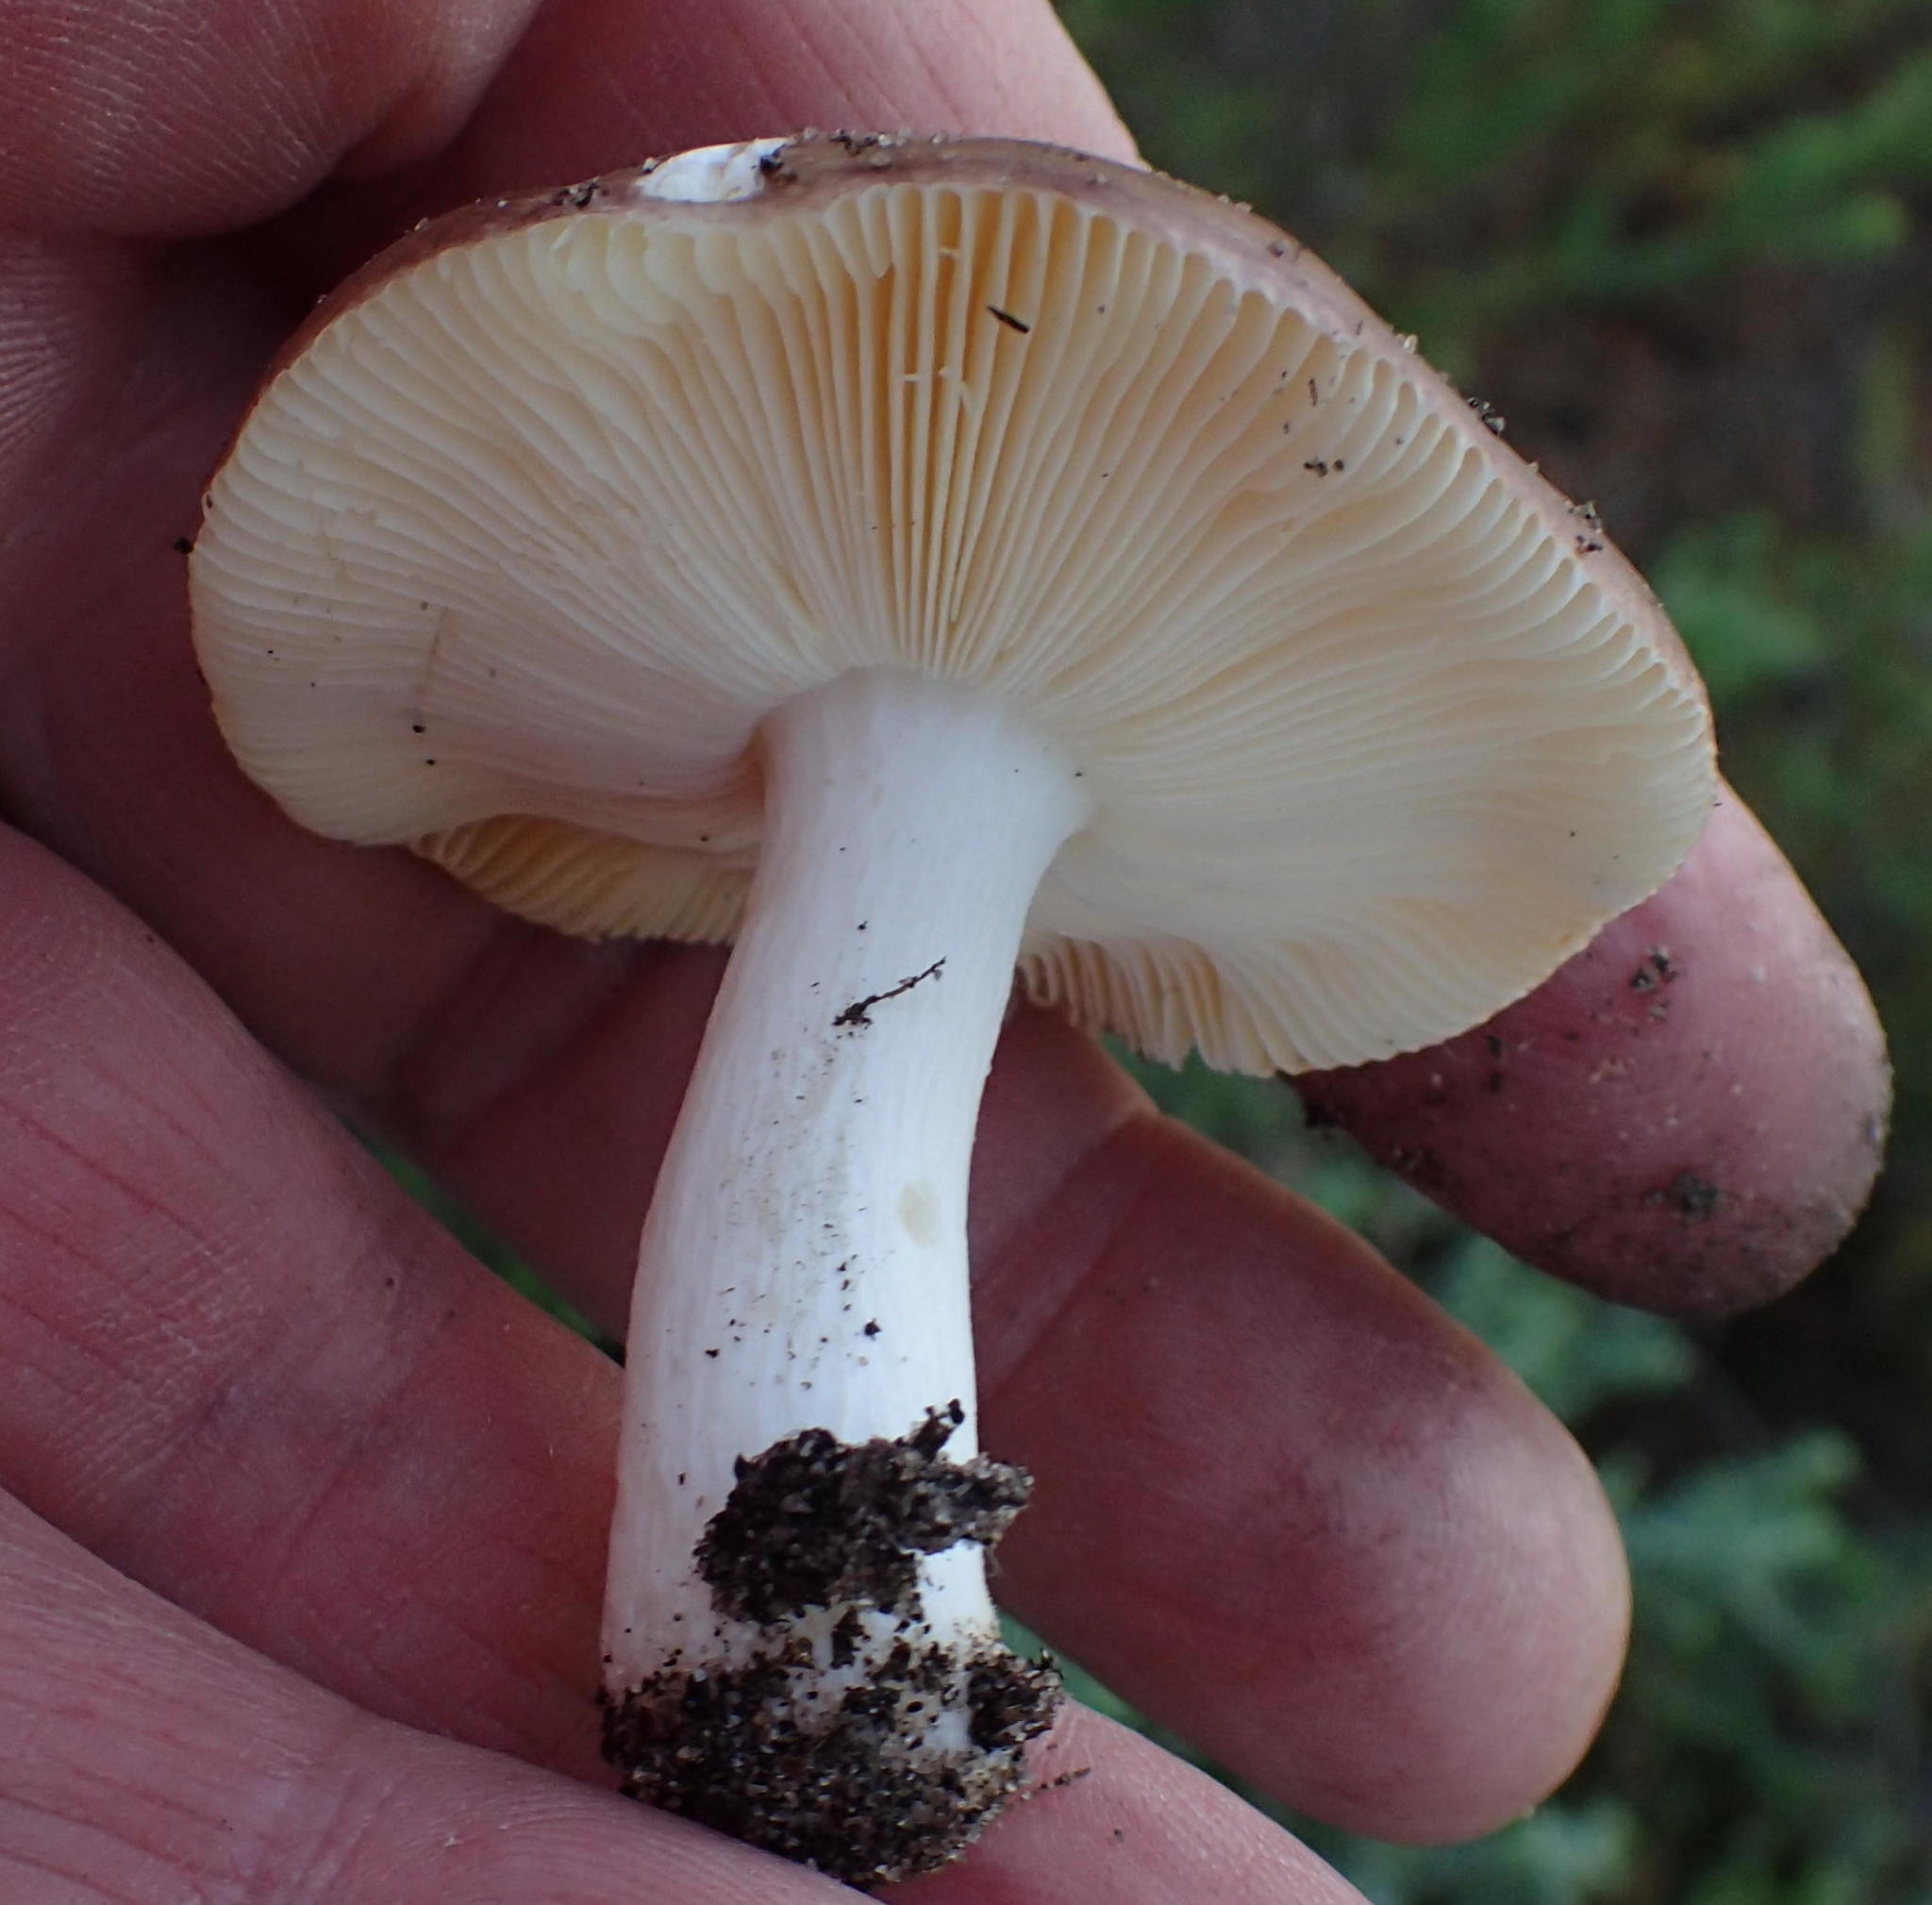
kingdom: Fungi
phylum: Basidiomycota
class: Agaricomycetes
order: Russulales
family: Russulaceae
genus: Russula
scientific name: Russula sardonia
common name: Primrose brittlegill
